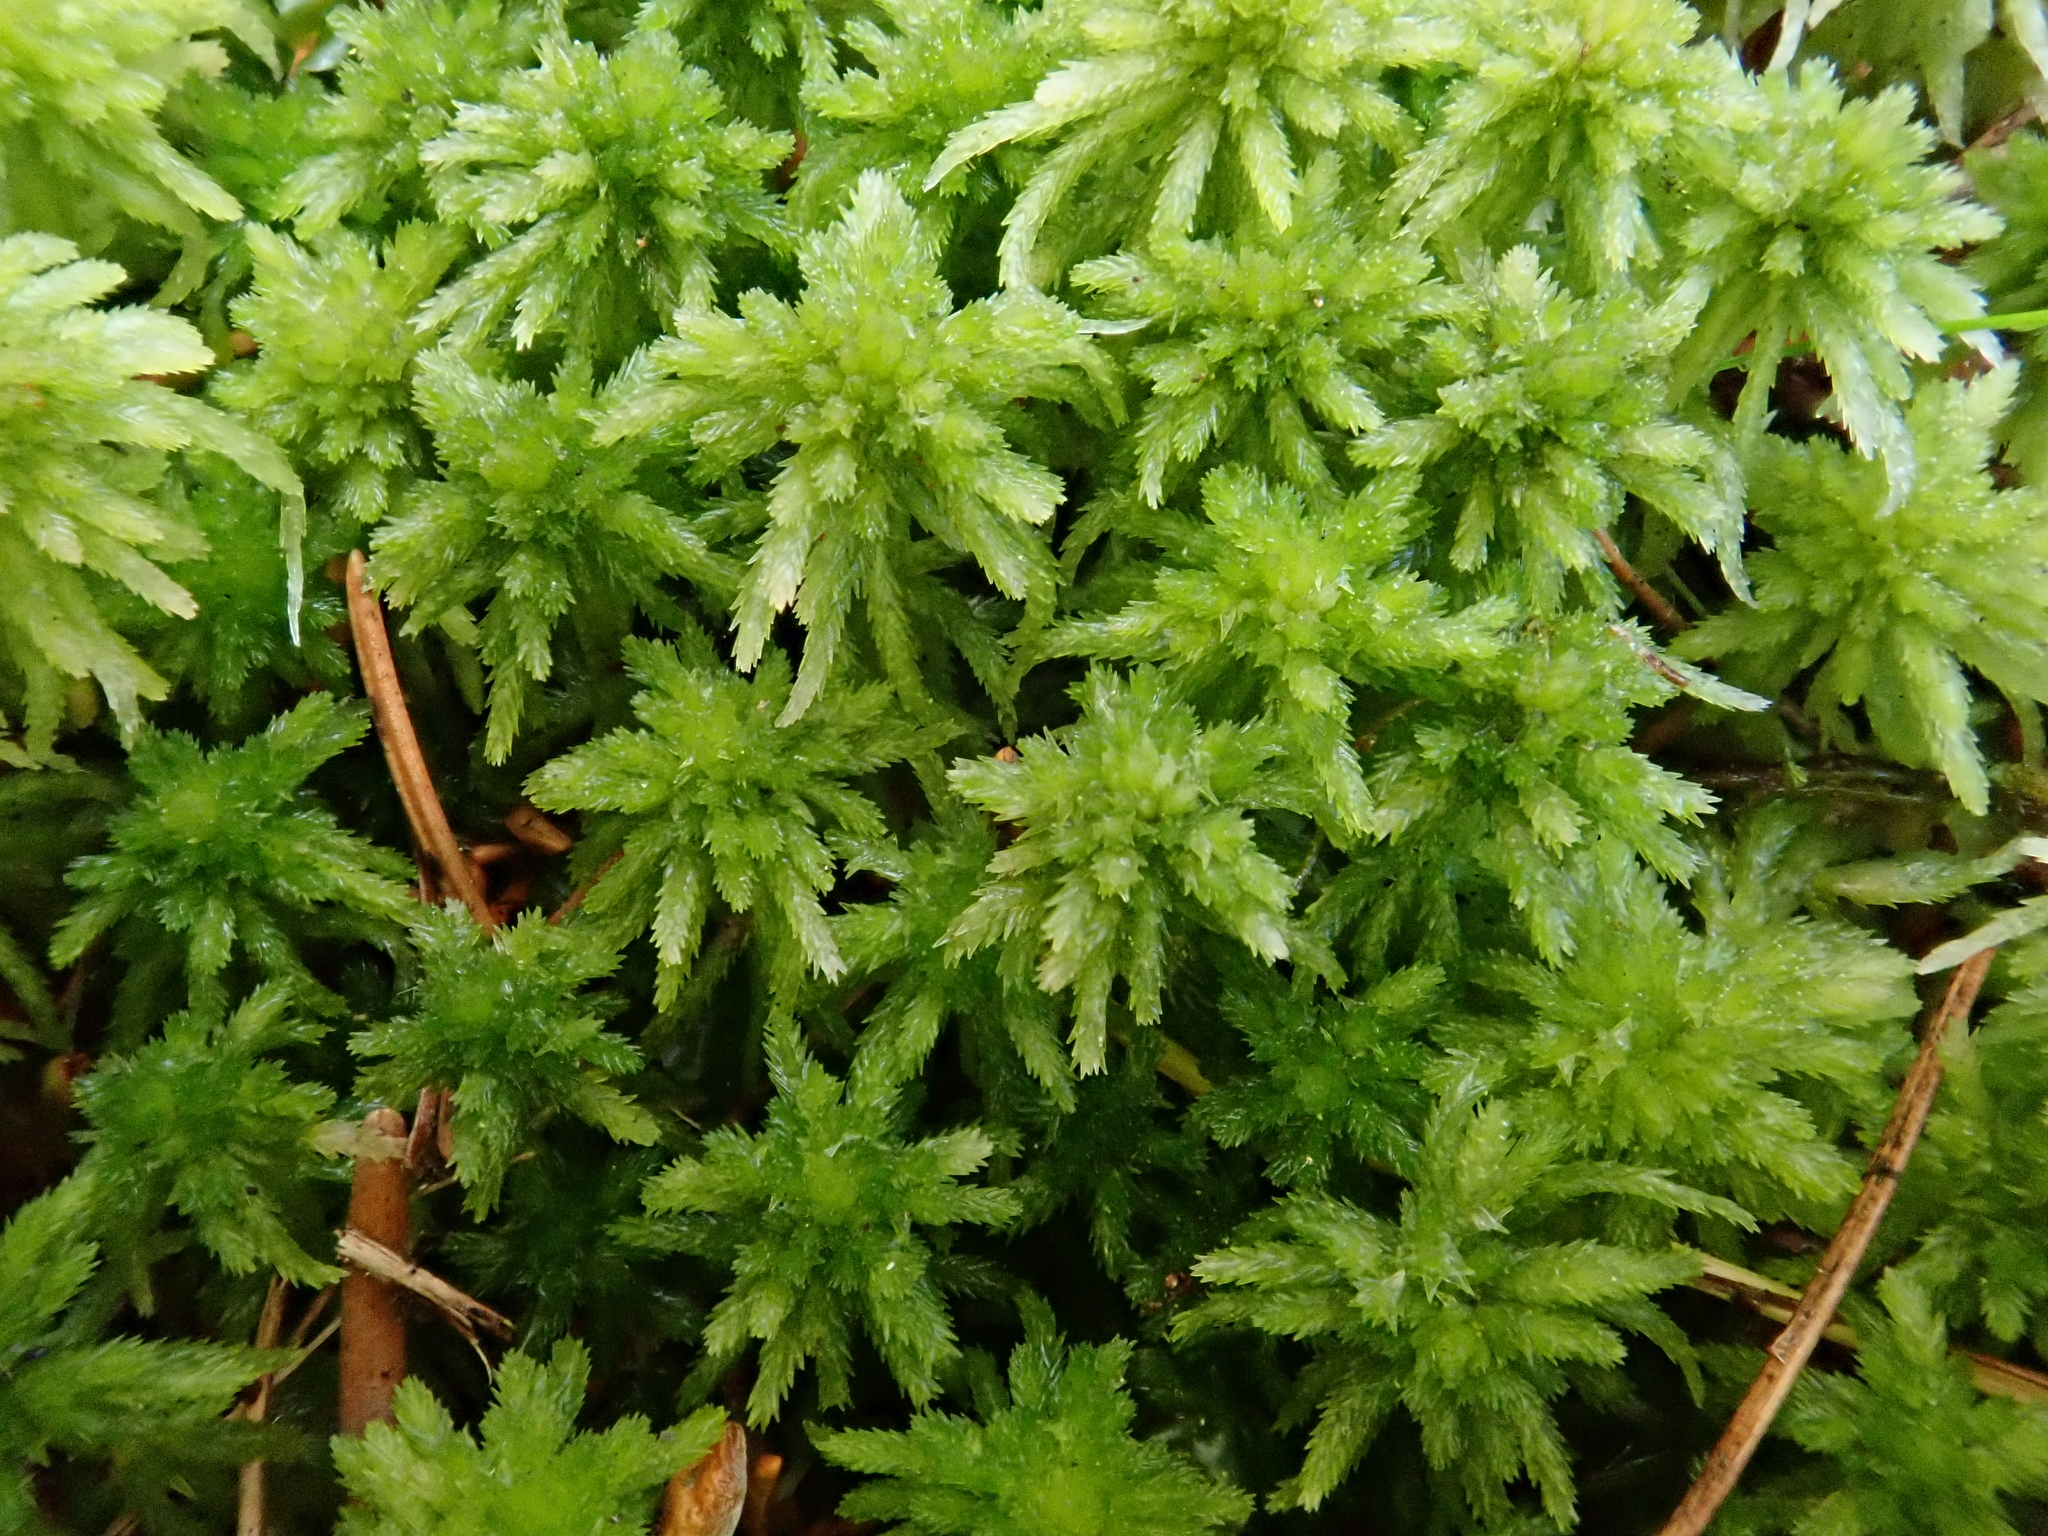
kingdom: Plantae
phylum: Bryophyta
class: Sphagnopsida
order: Sphagnales
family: Sphagnaceae
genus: Sphagnum
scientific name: Sphagnum girgensohnii
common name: Girgensohn's peat moss
